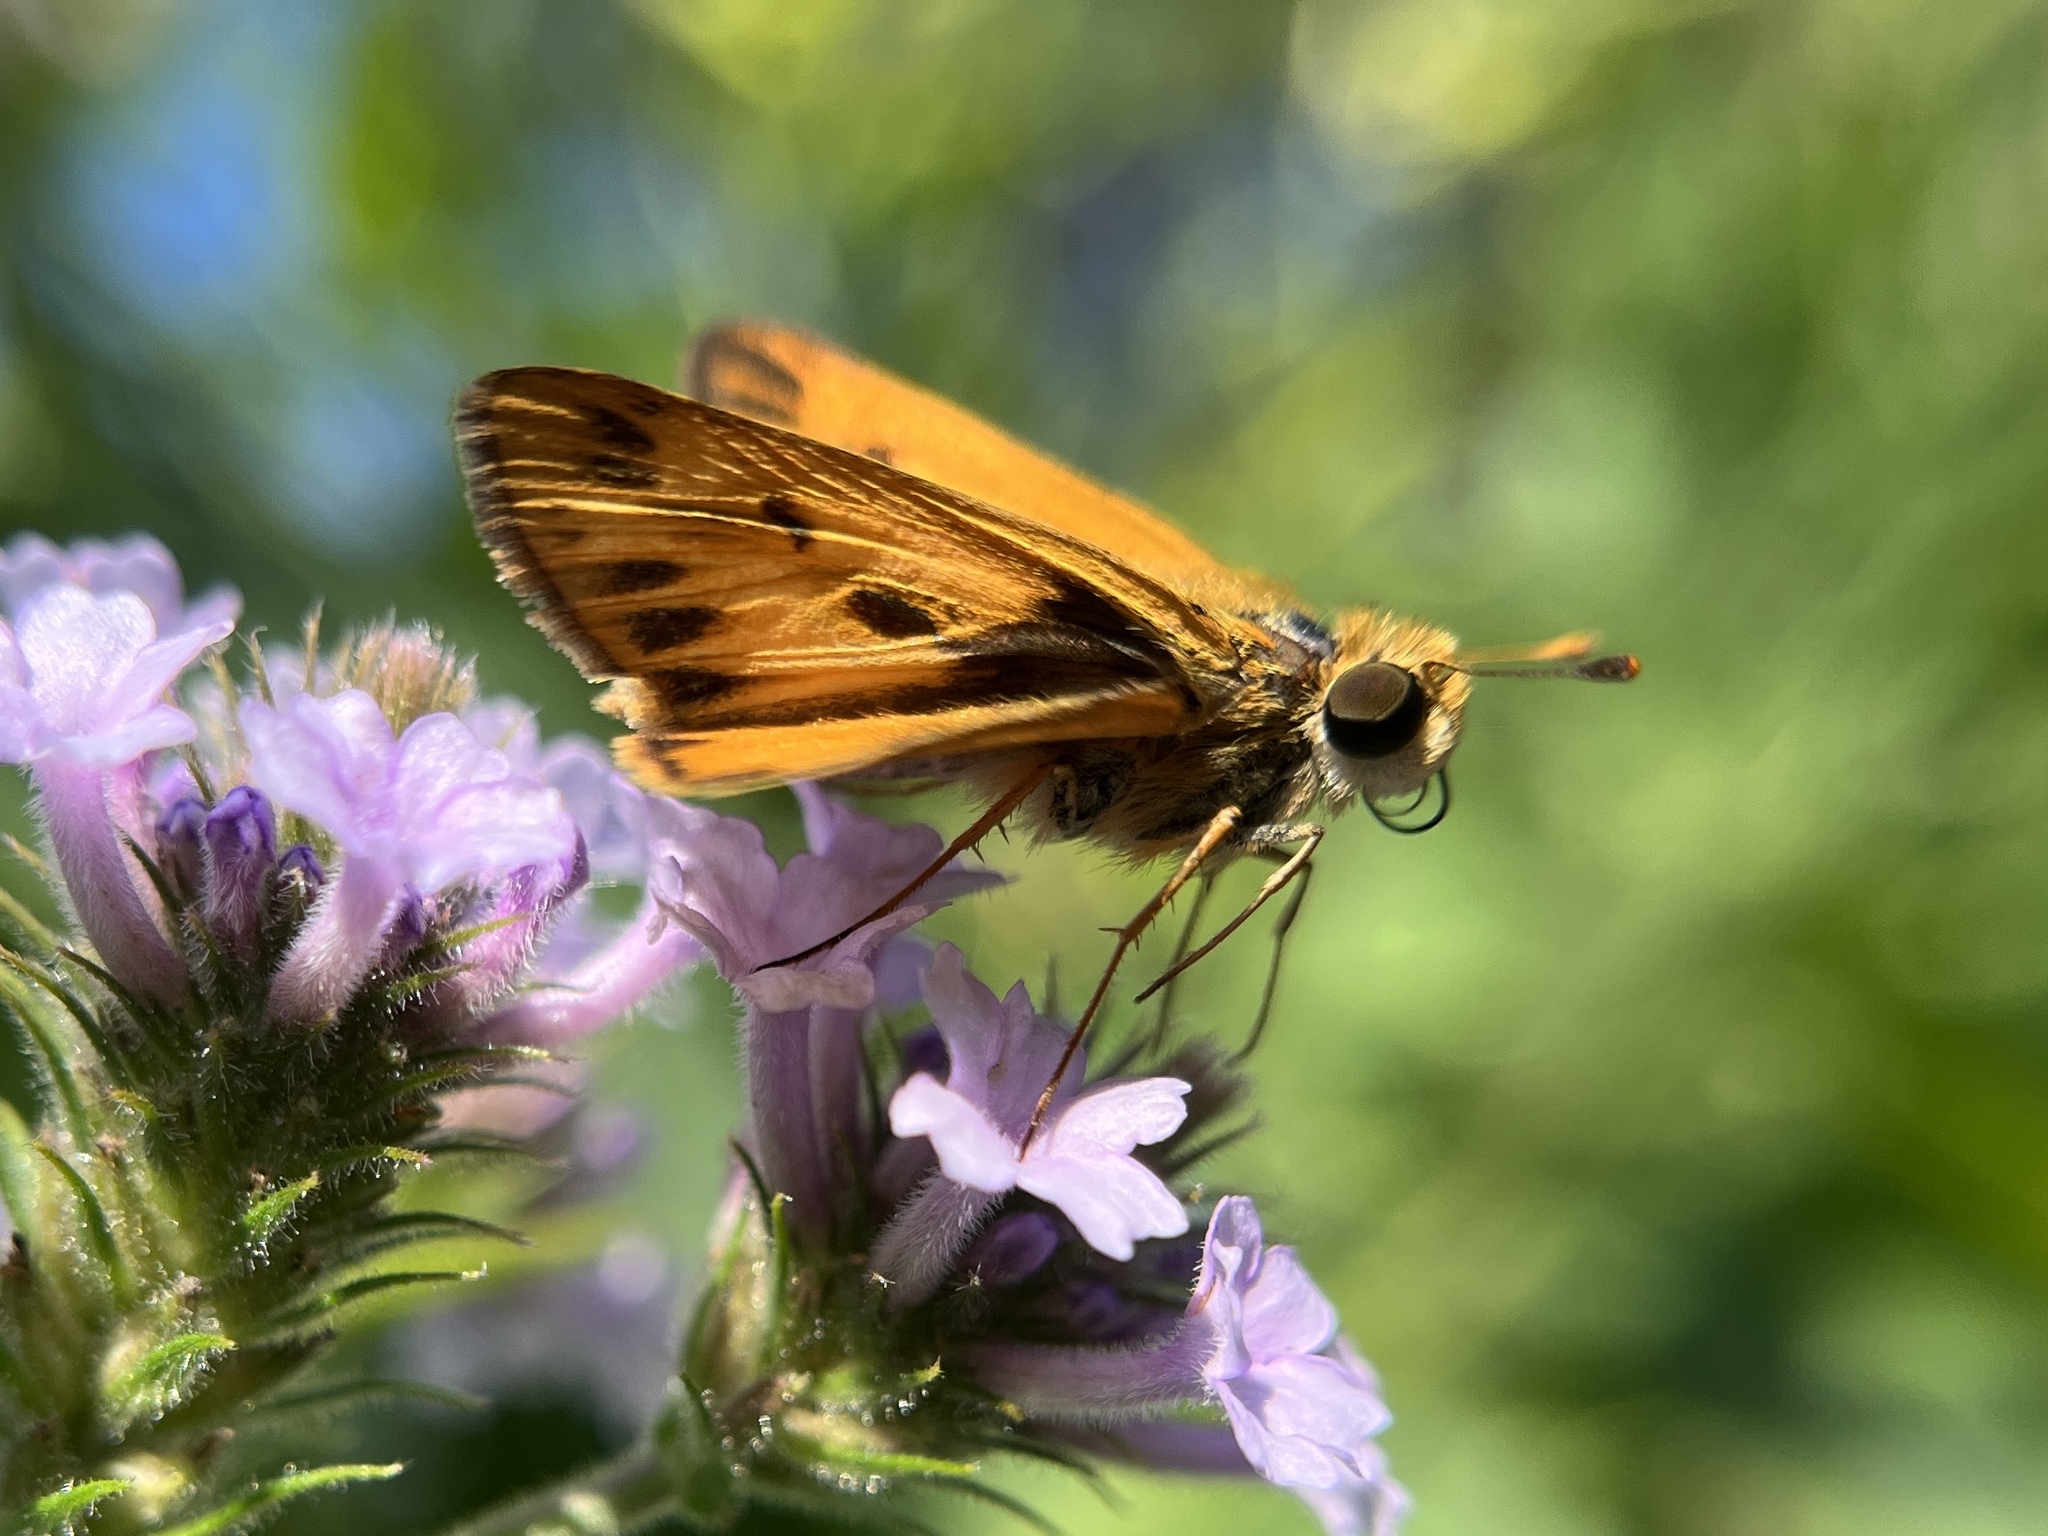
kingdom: Animalia
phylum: Arthropoda
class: Insecta
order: Lepidoptera
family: Hesperiidae
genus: Hylephila
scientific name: Hylephila phyleus
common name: Fiery skipper
